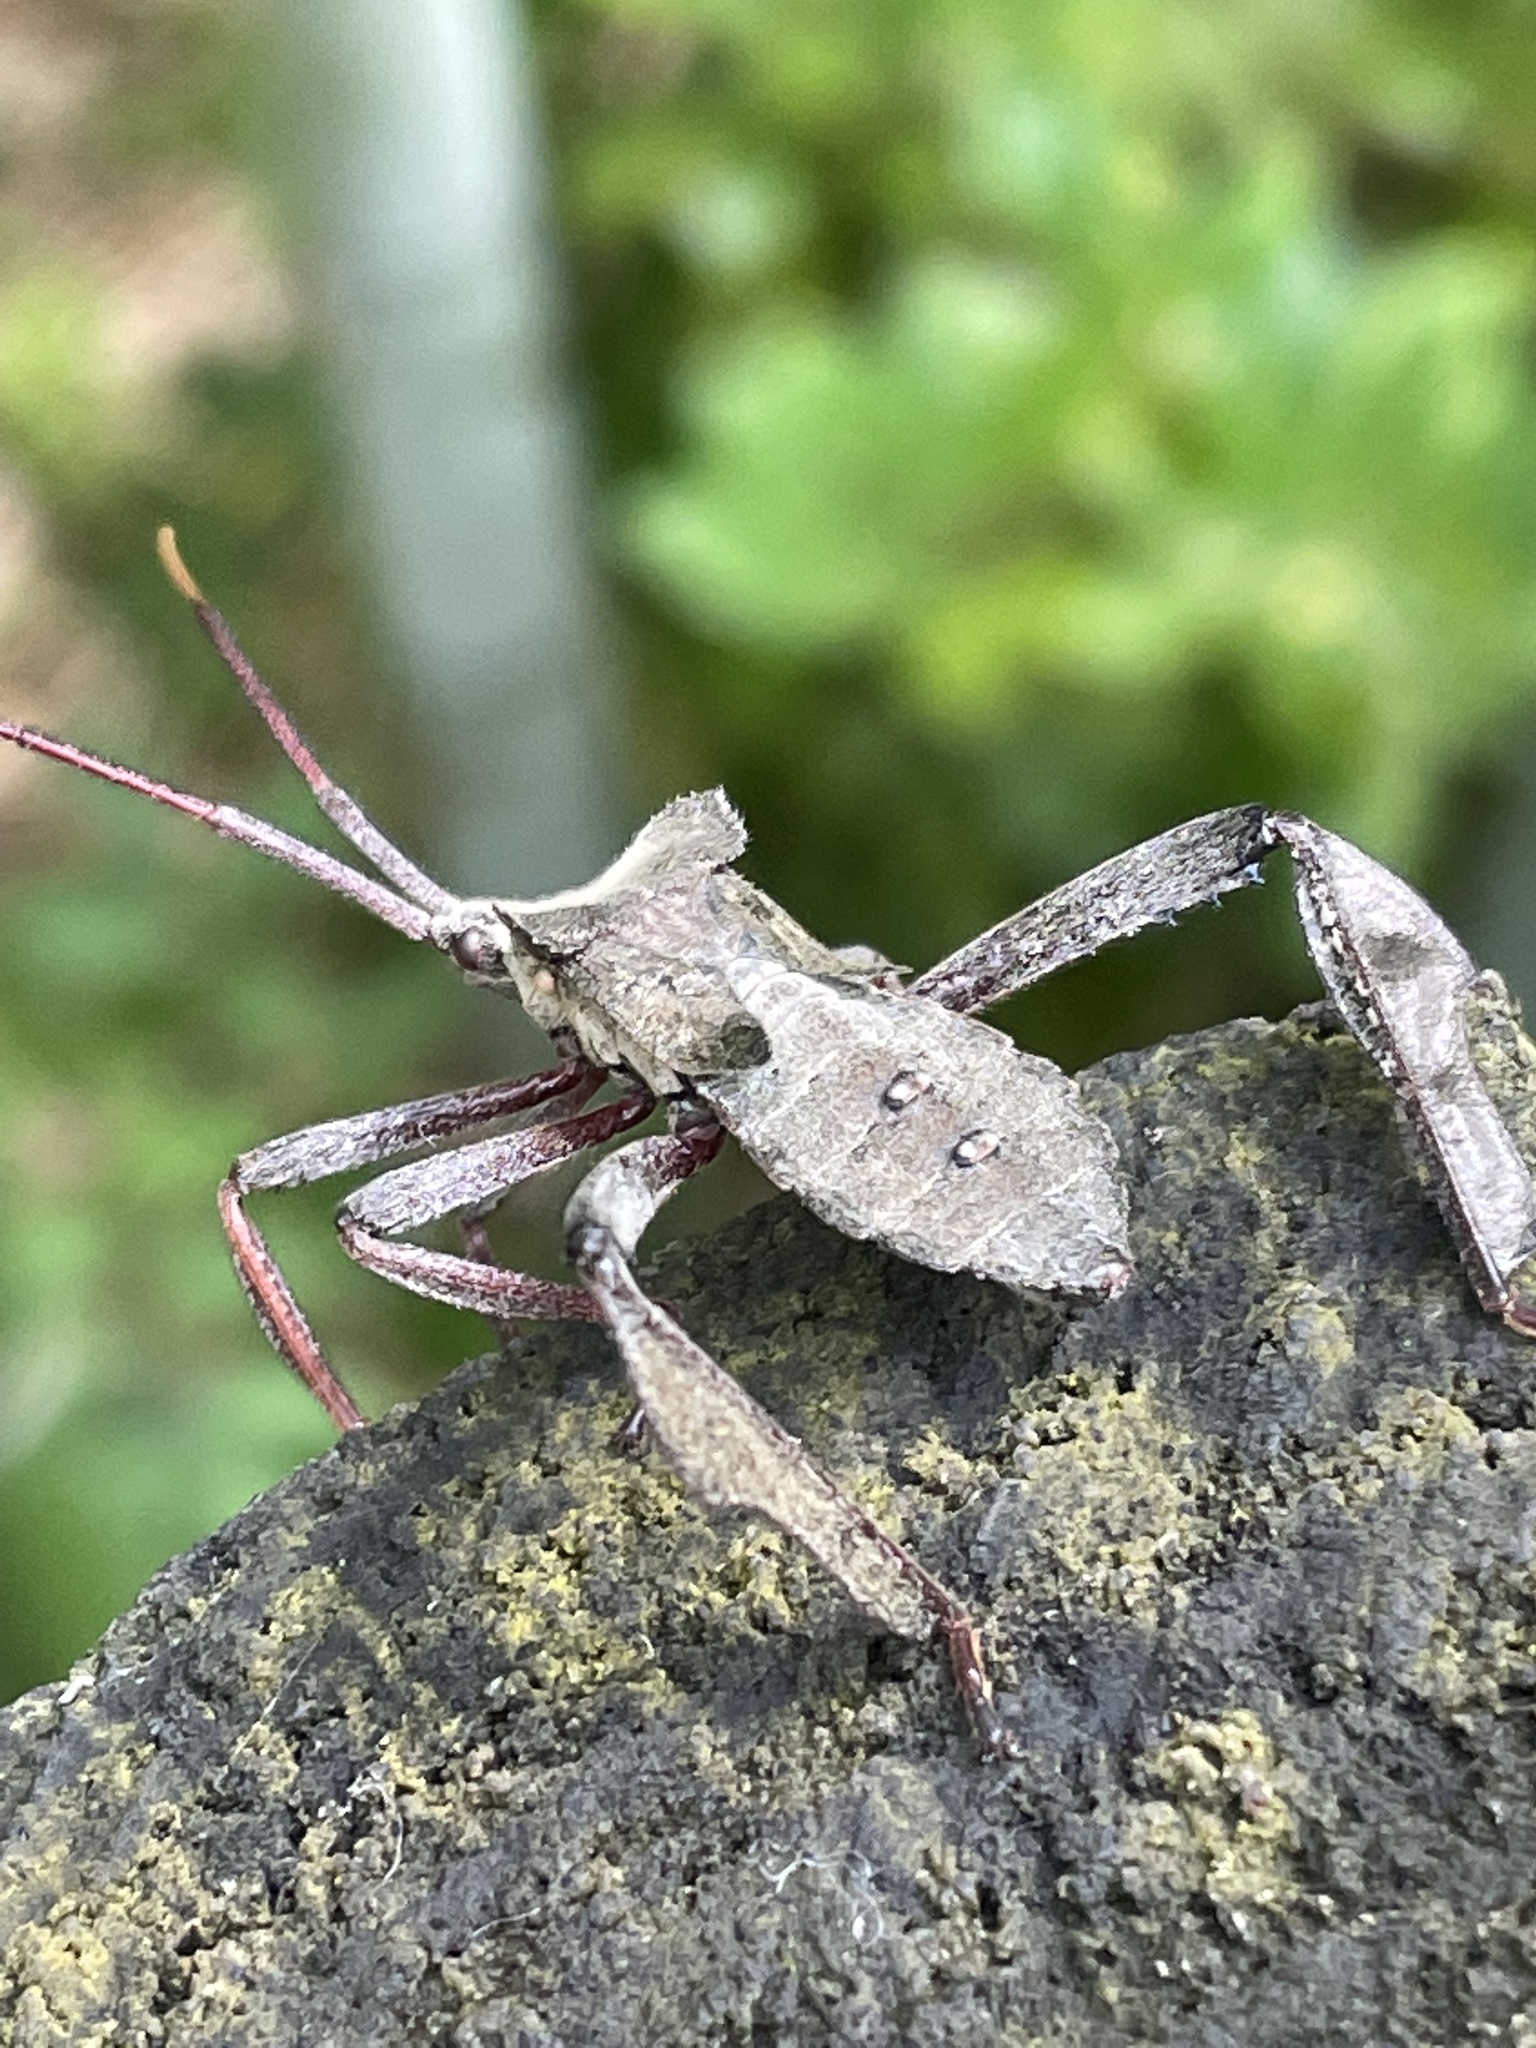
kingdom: Animalia
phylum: Arthropoda
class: Insecta
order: Hemiptera
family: Coreidae
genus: Acanthocephala
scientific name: Acanthocephala declivis
